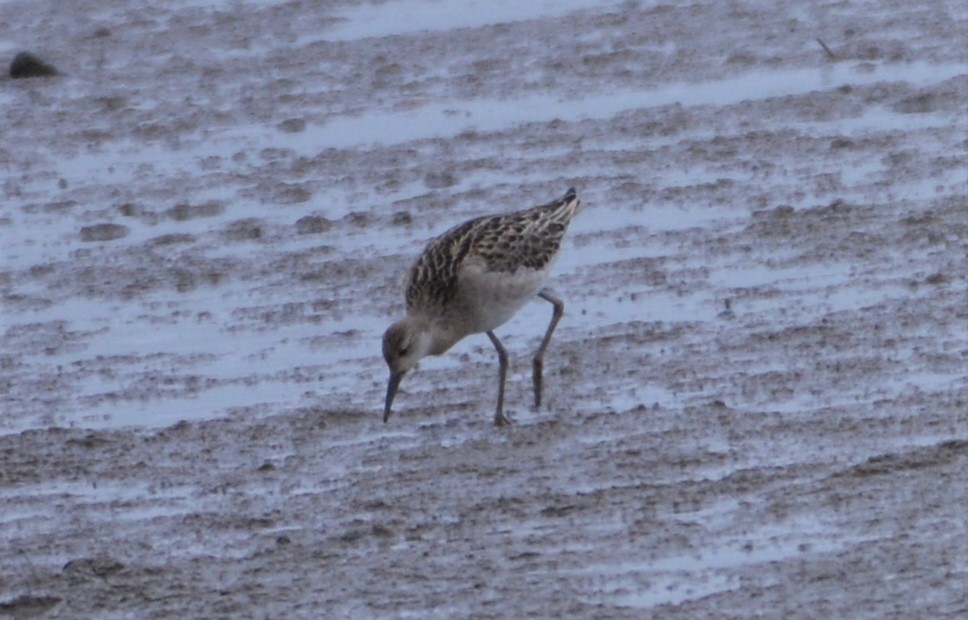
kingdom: Animalia
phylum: Chordata
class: Aves
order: Charadriiformes
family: Scolopacidae
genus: Calidris
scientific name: Calidris pugnax
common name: Ruff
